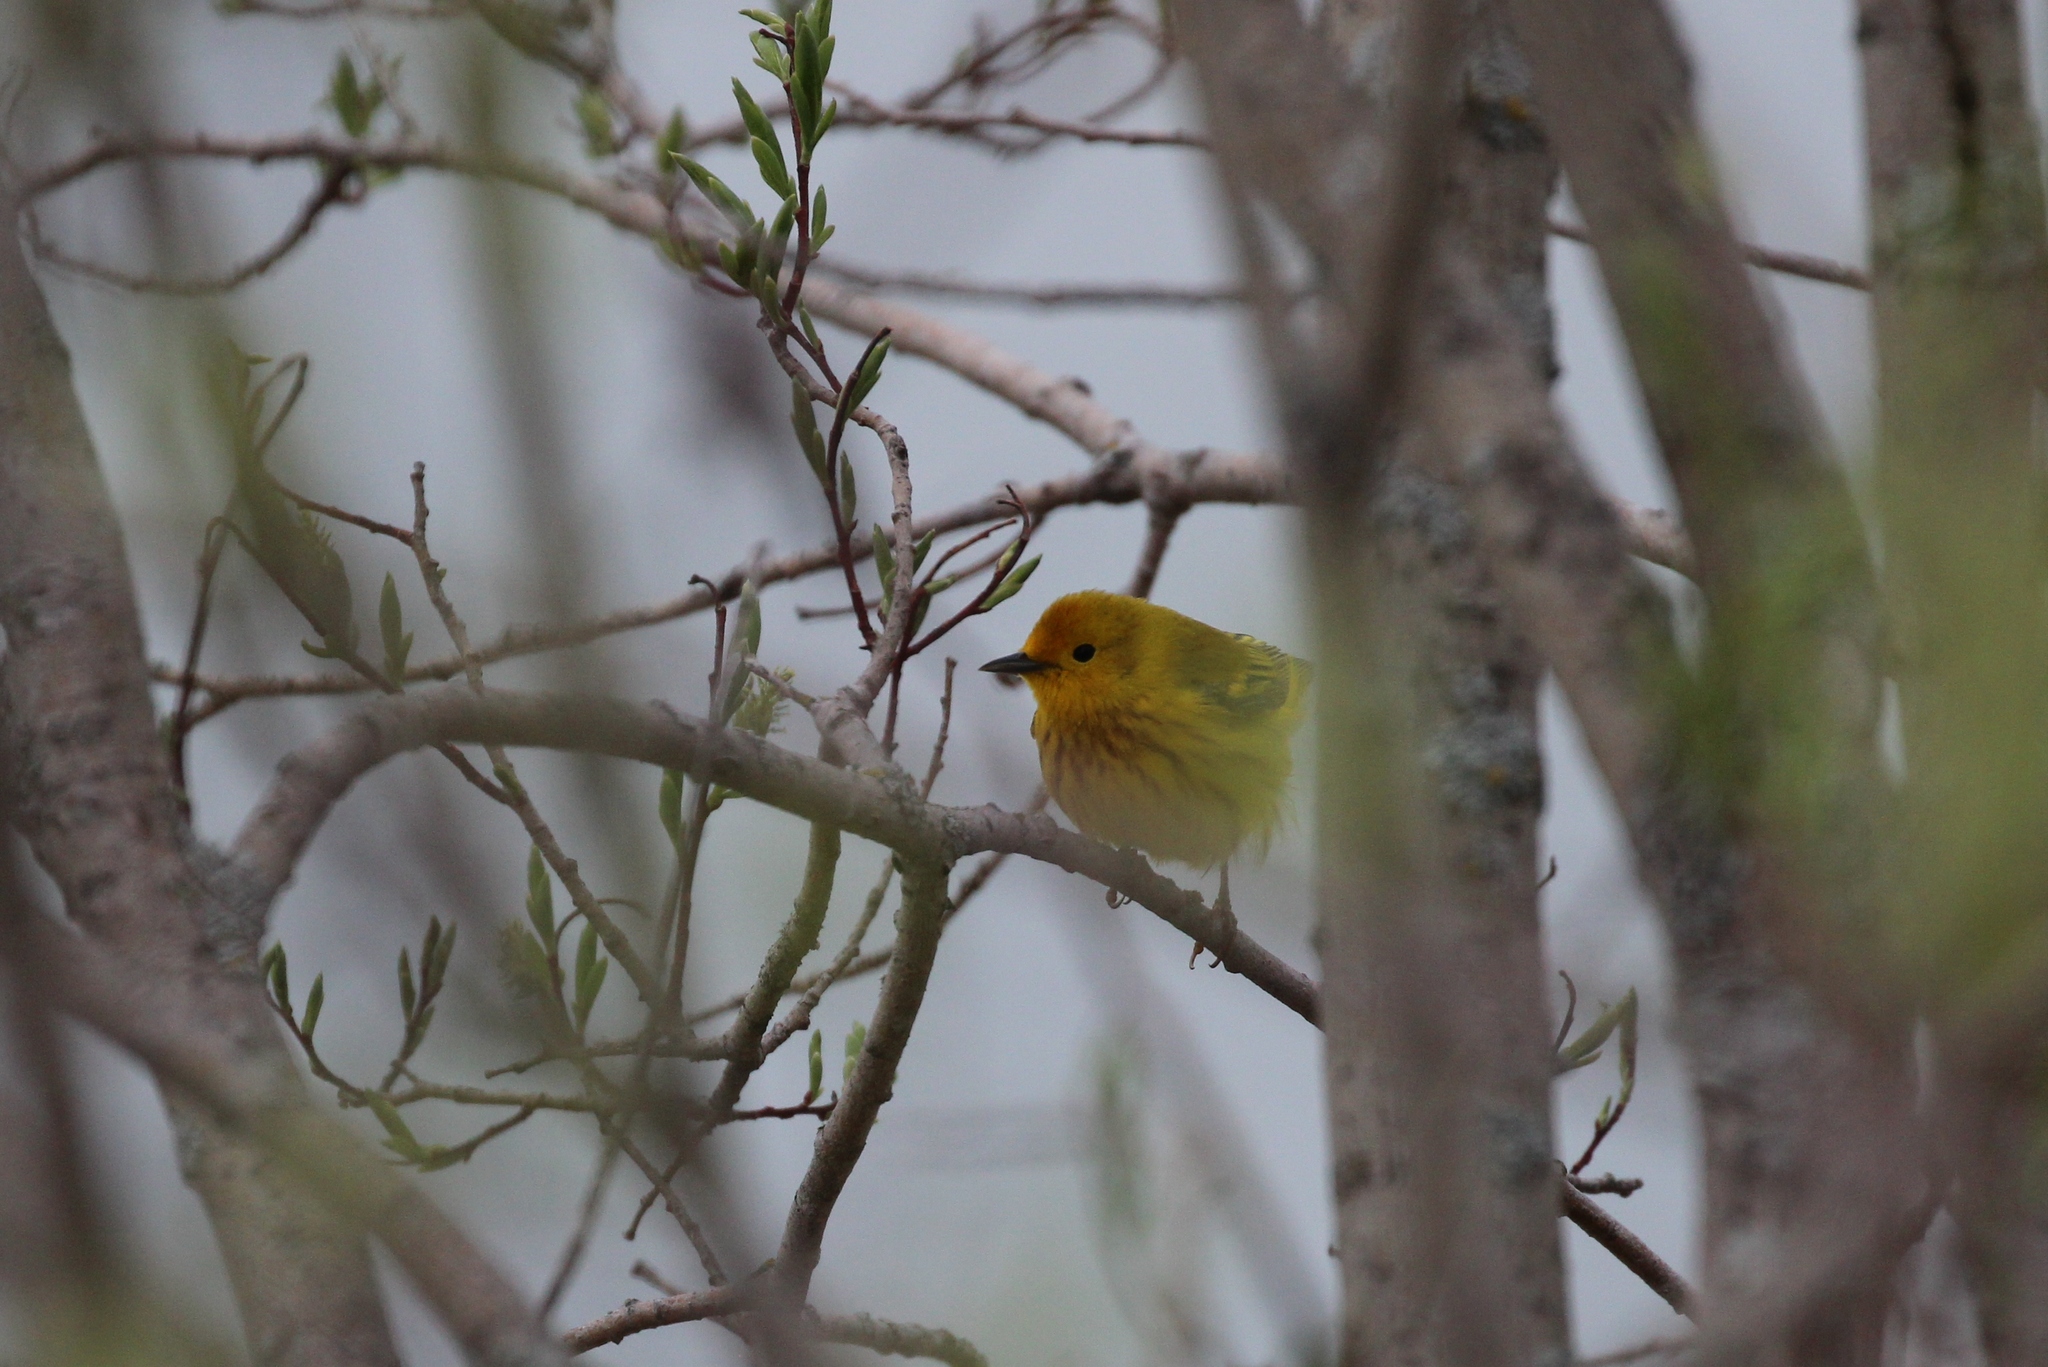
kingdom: Animalia
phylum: Chordata
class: Aves
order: Passeriformes
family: Parulidae
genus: Setophaga
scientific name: Setophaga petechia
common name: Yellow warbler
